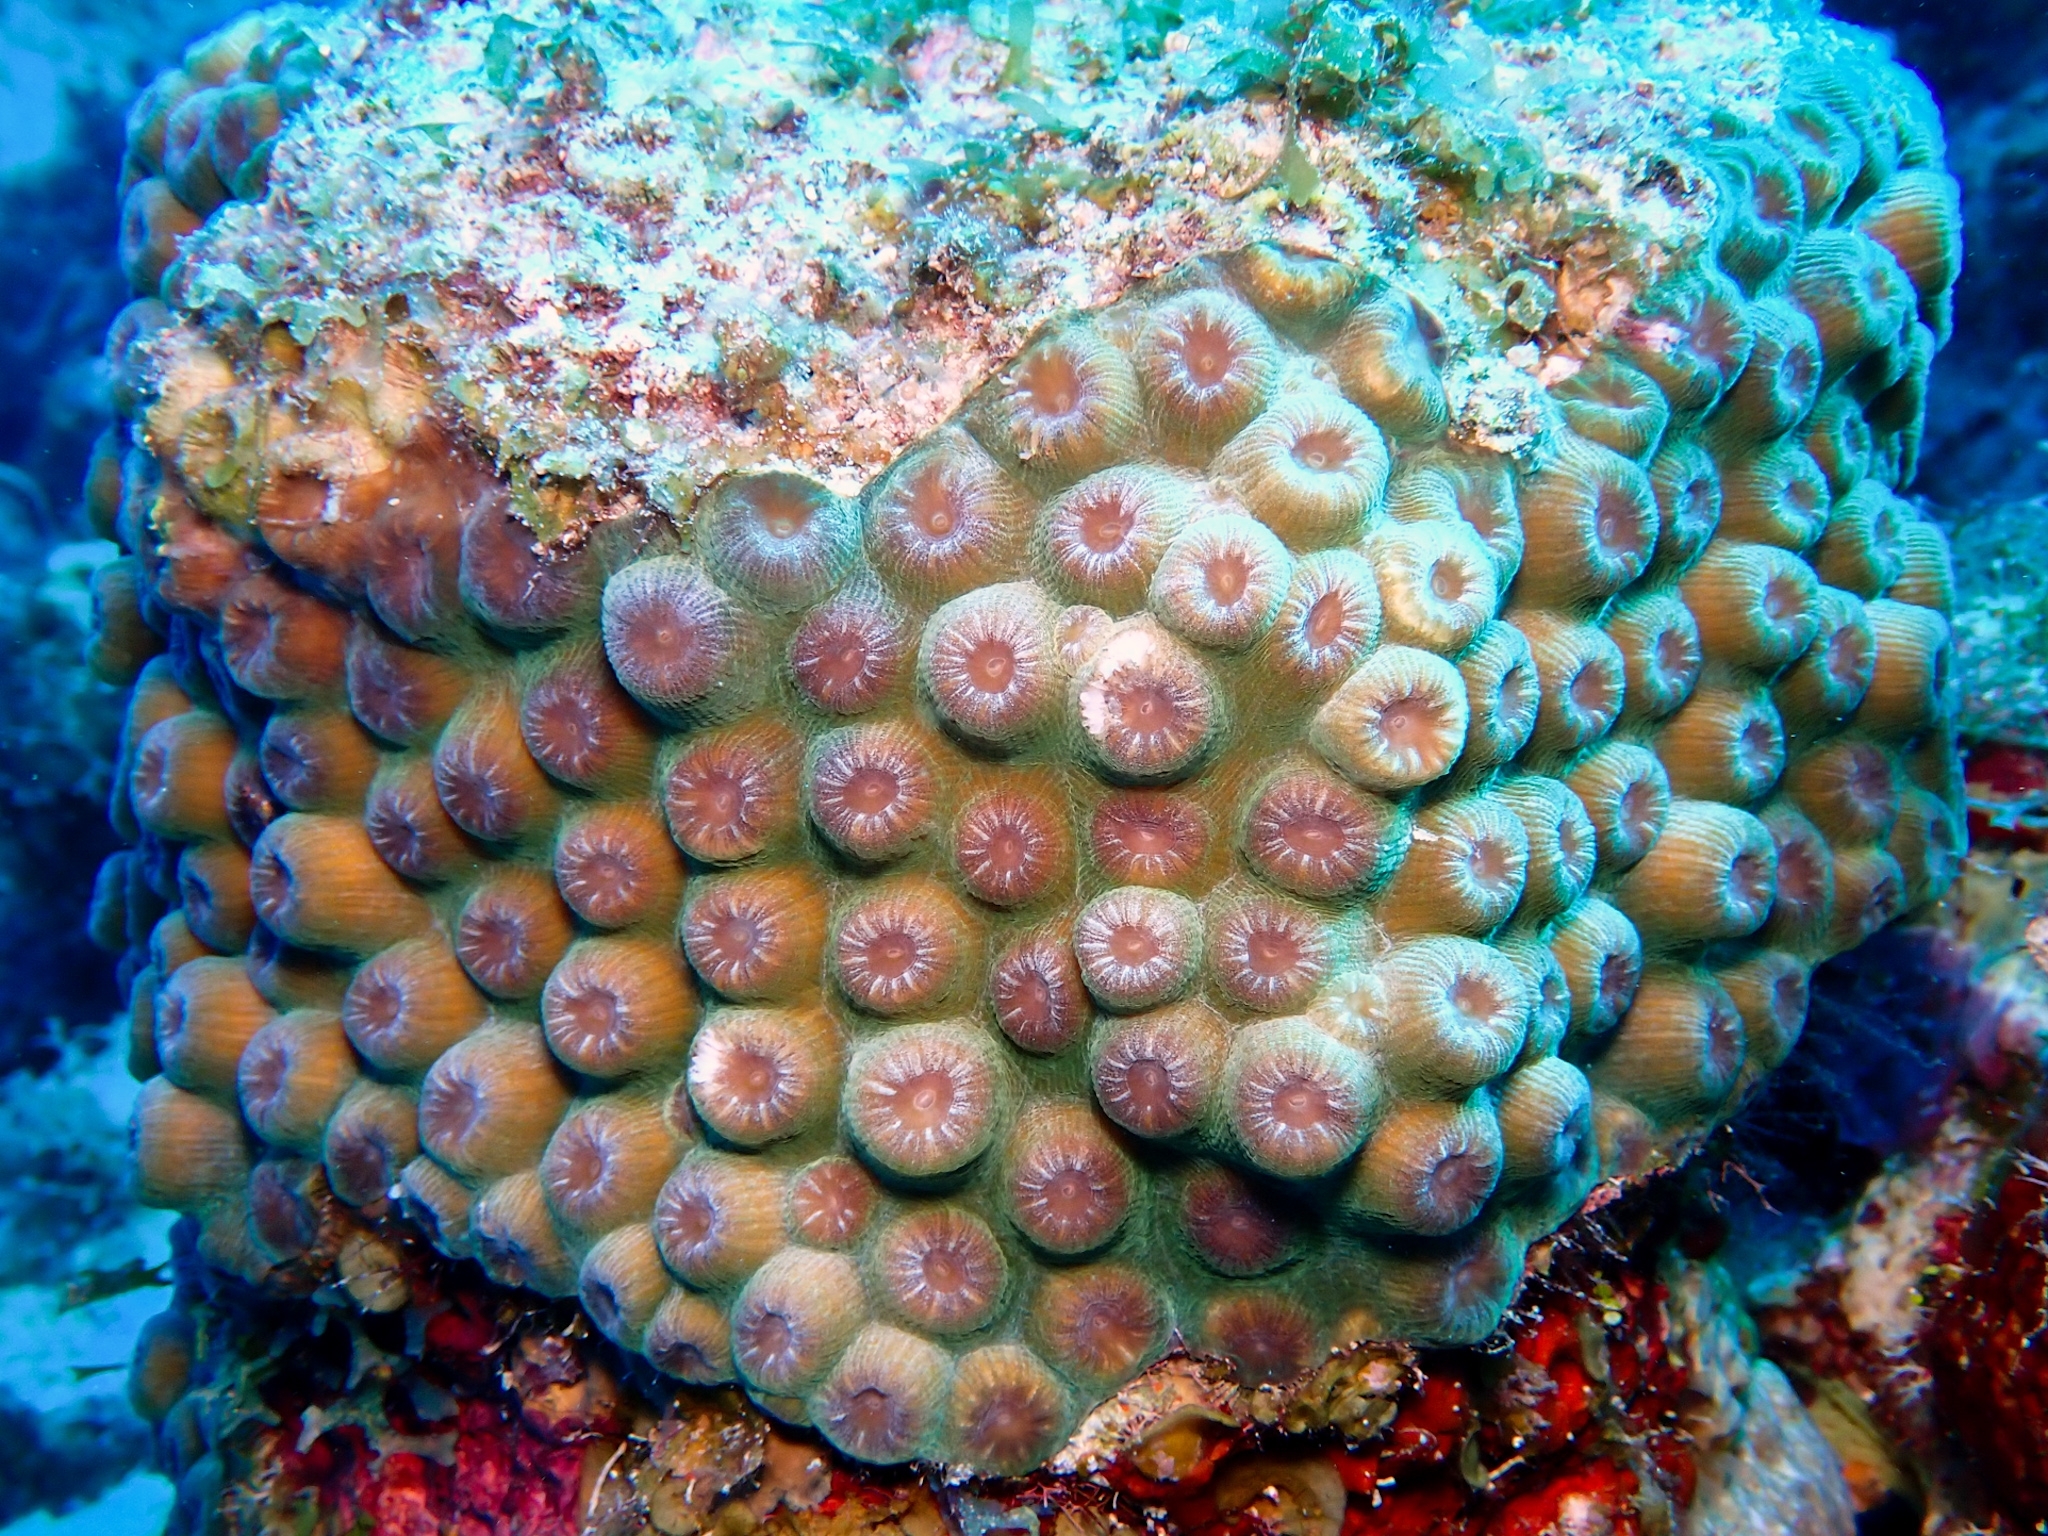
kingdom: Animalia
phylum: Cnidaria
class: Anthozoa
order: Scleractinia
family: Montastraeidae
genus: Montastraea
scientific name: Montastraea cavernosa
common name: Great star coral
